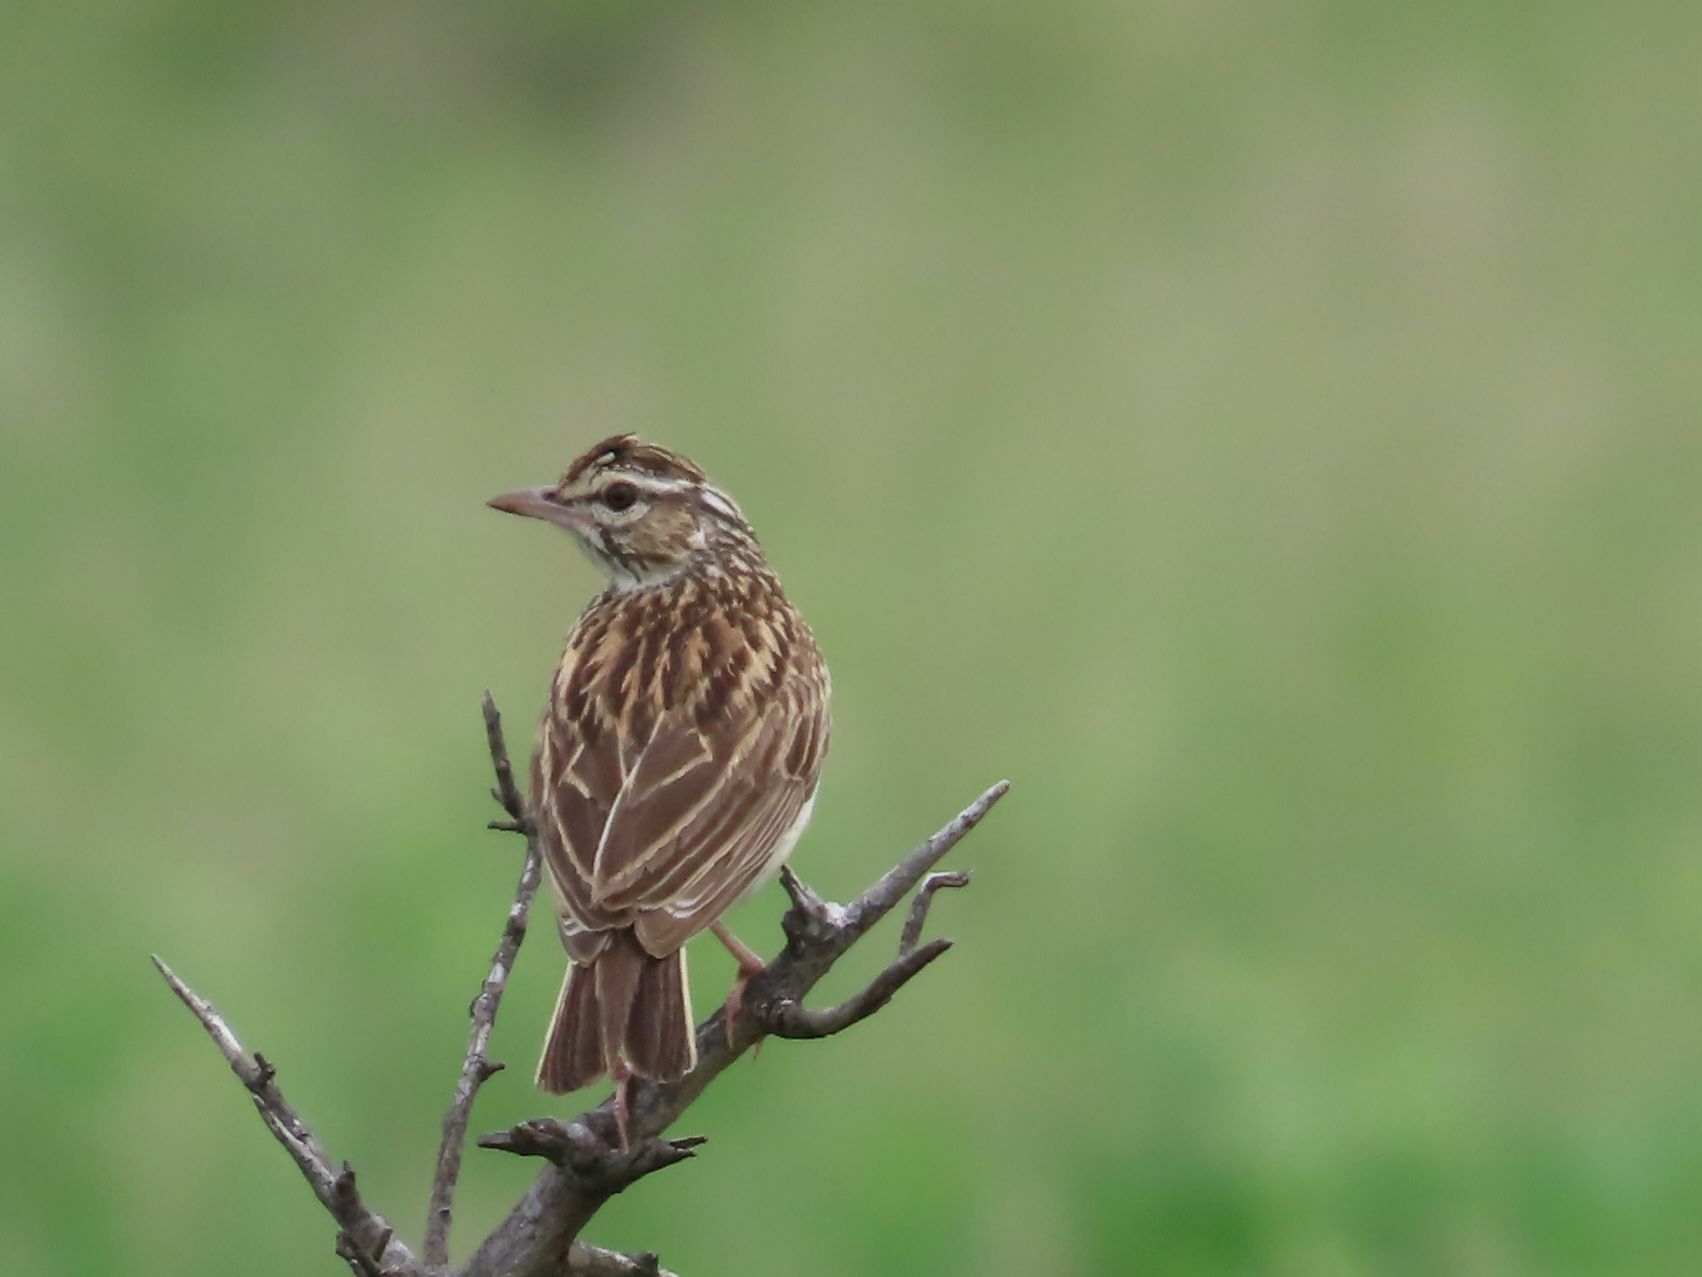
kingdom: Animalia
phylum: Chordata
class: Aves
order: Passeriformes
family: Alaudidae
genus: Calendulauda
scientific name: Calendulauda sabota
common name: Sabota lark
